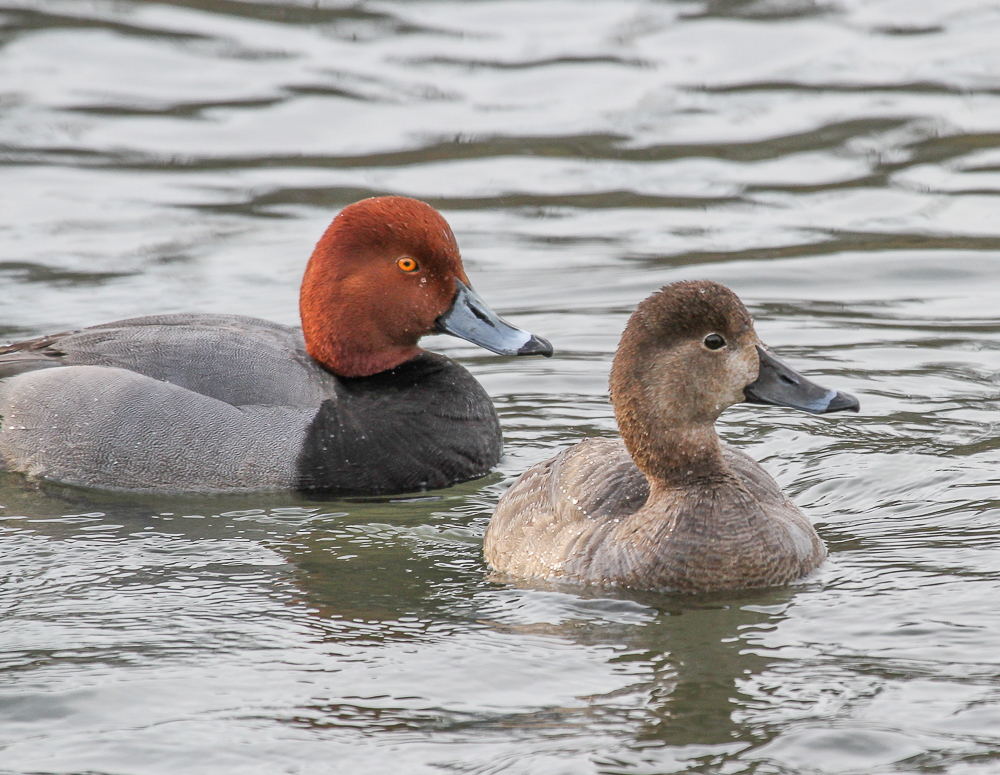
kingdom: Animalia
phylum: Chordata
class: Aves
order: Anseriformes
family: Anatidae
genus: Aythya
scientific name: Aythya americana
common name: Redhead
